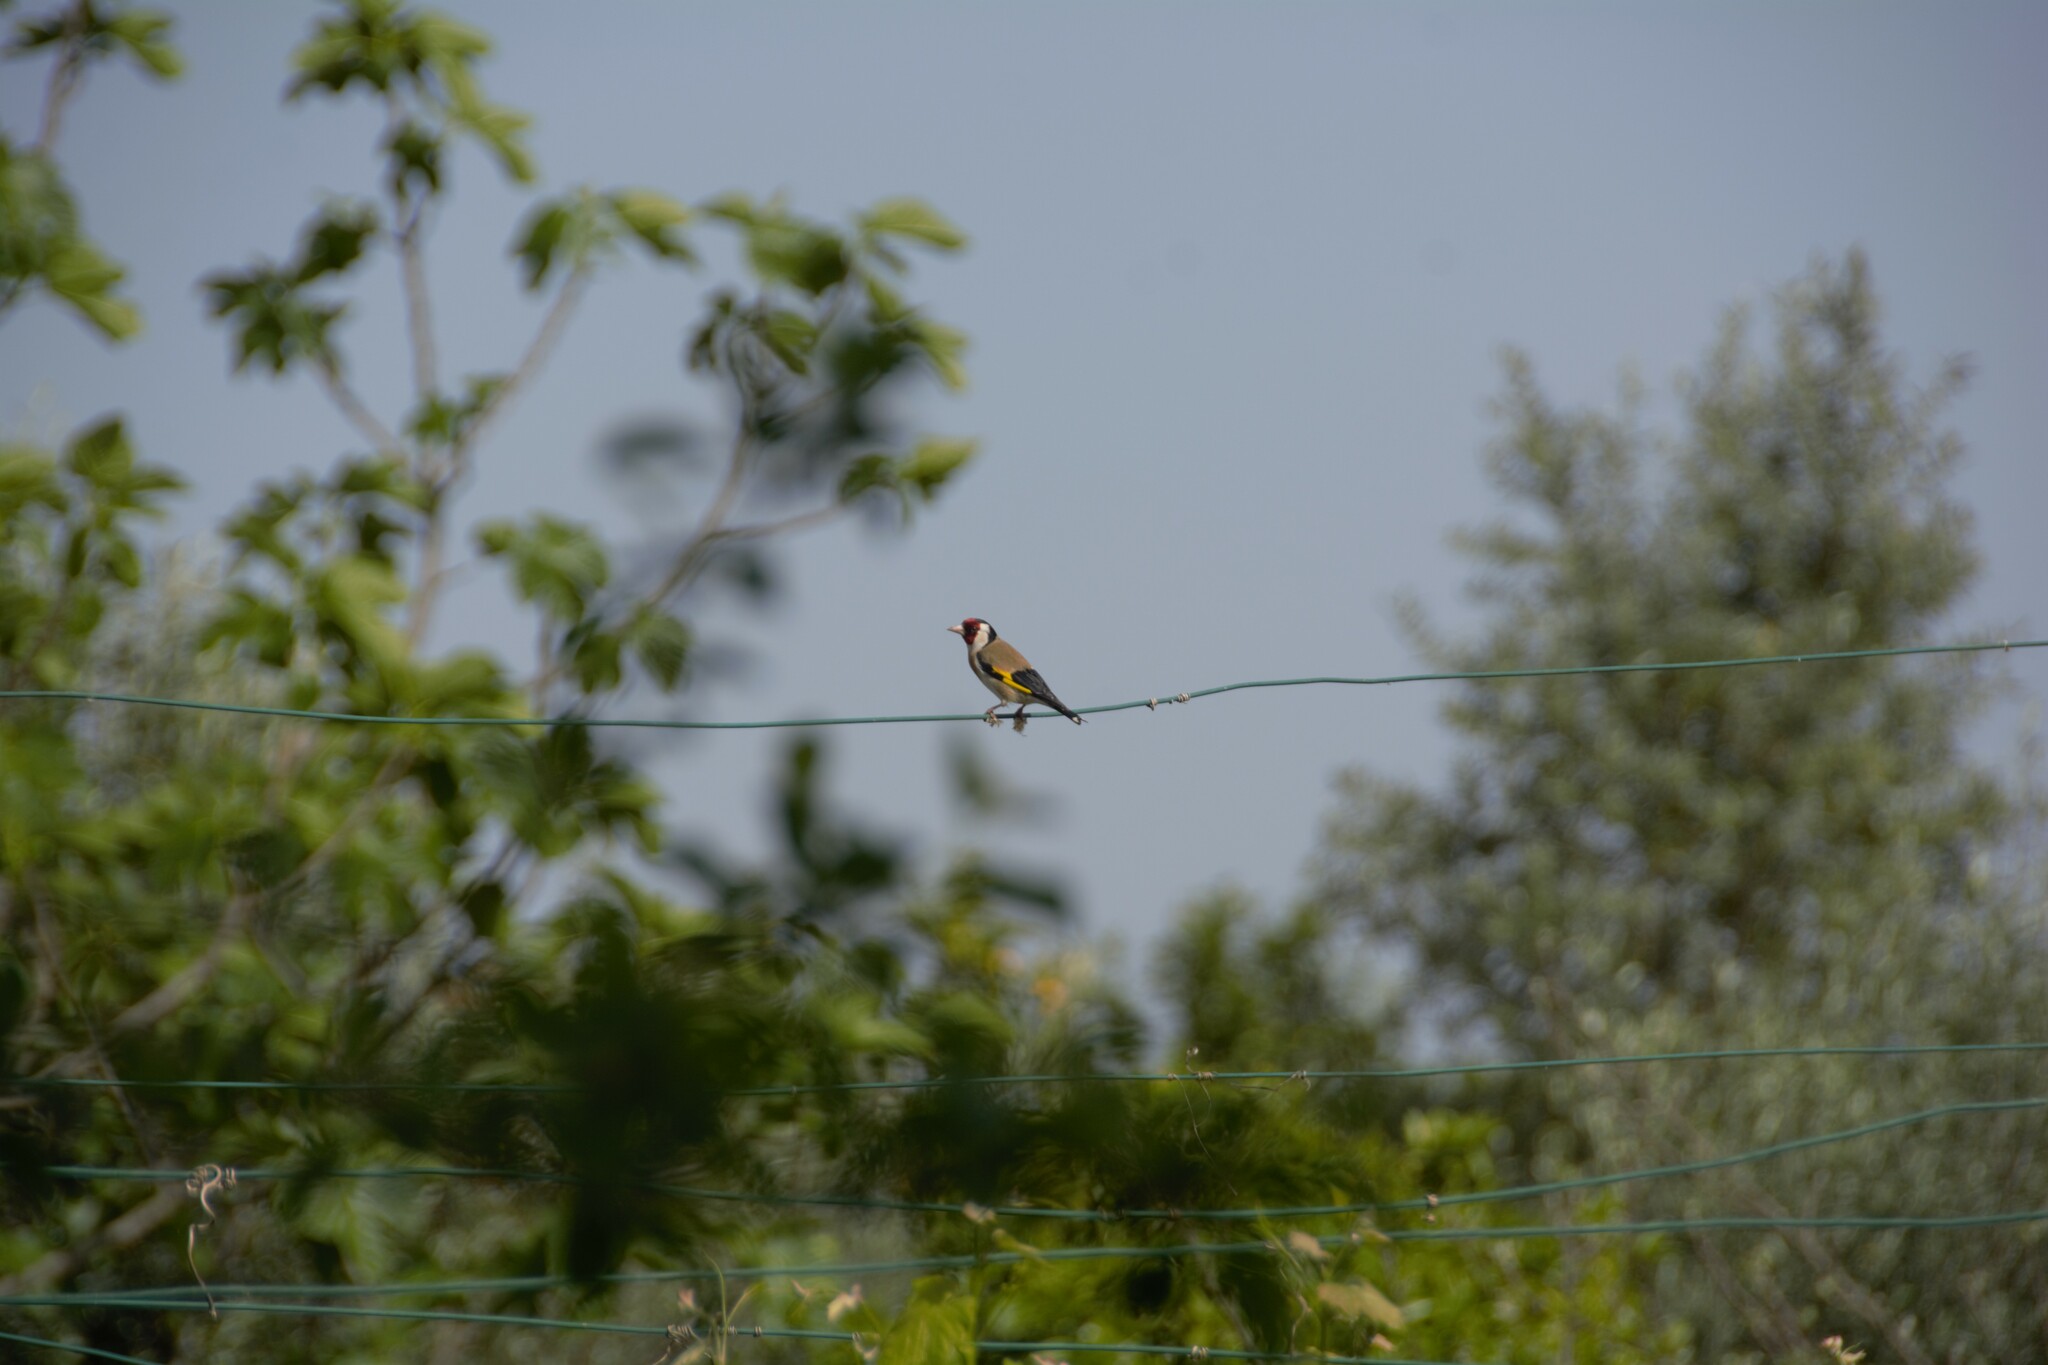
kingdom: Animalia
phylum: Chordata
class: Aves
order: Passeriformes
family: Fringillidae
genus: Carduelis
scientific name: Carduelis carduelis
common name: European goldfinch
